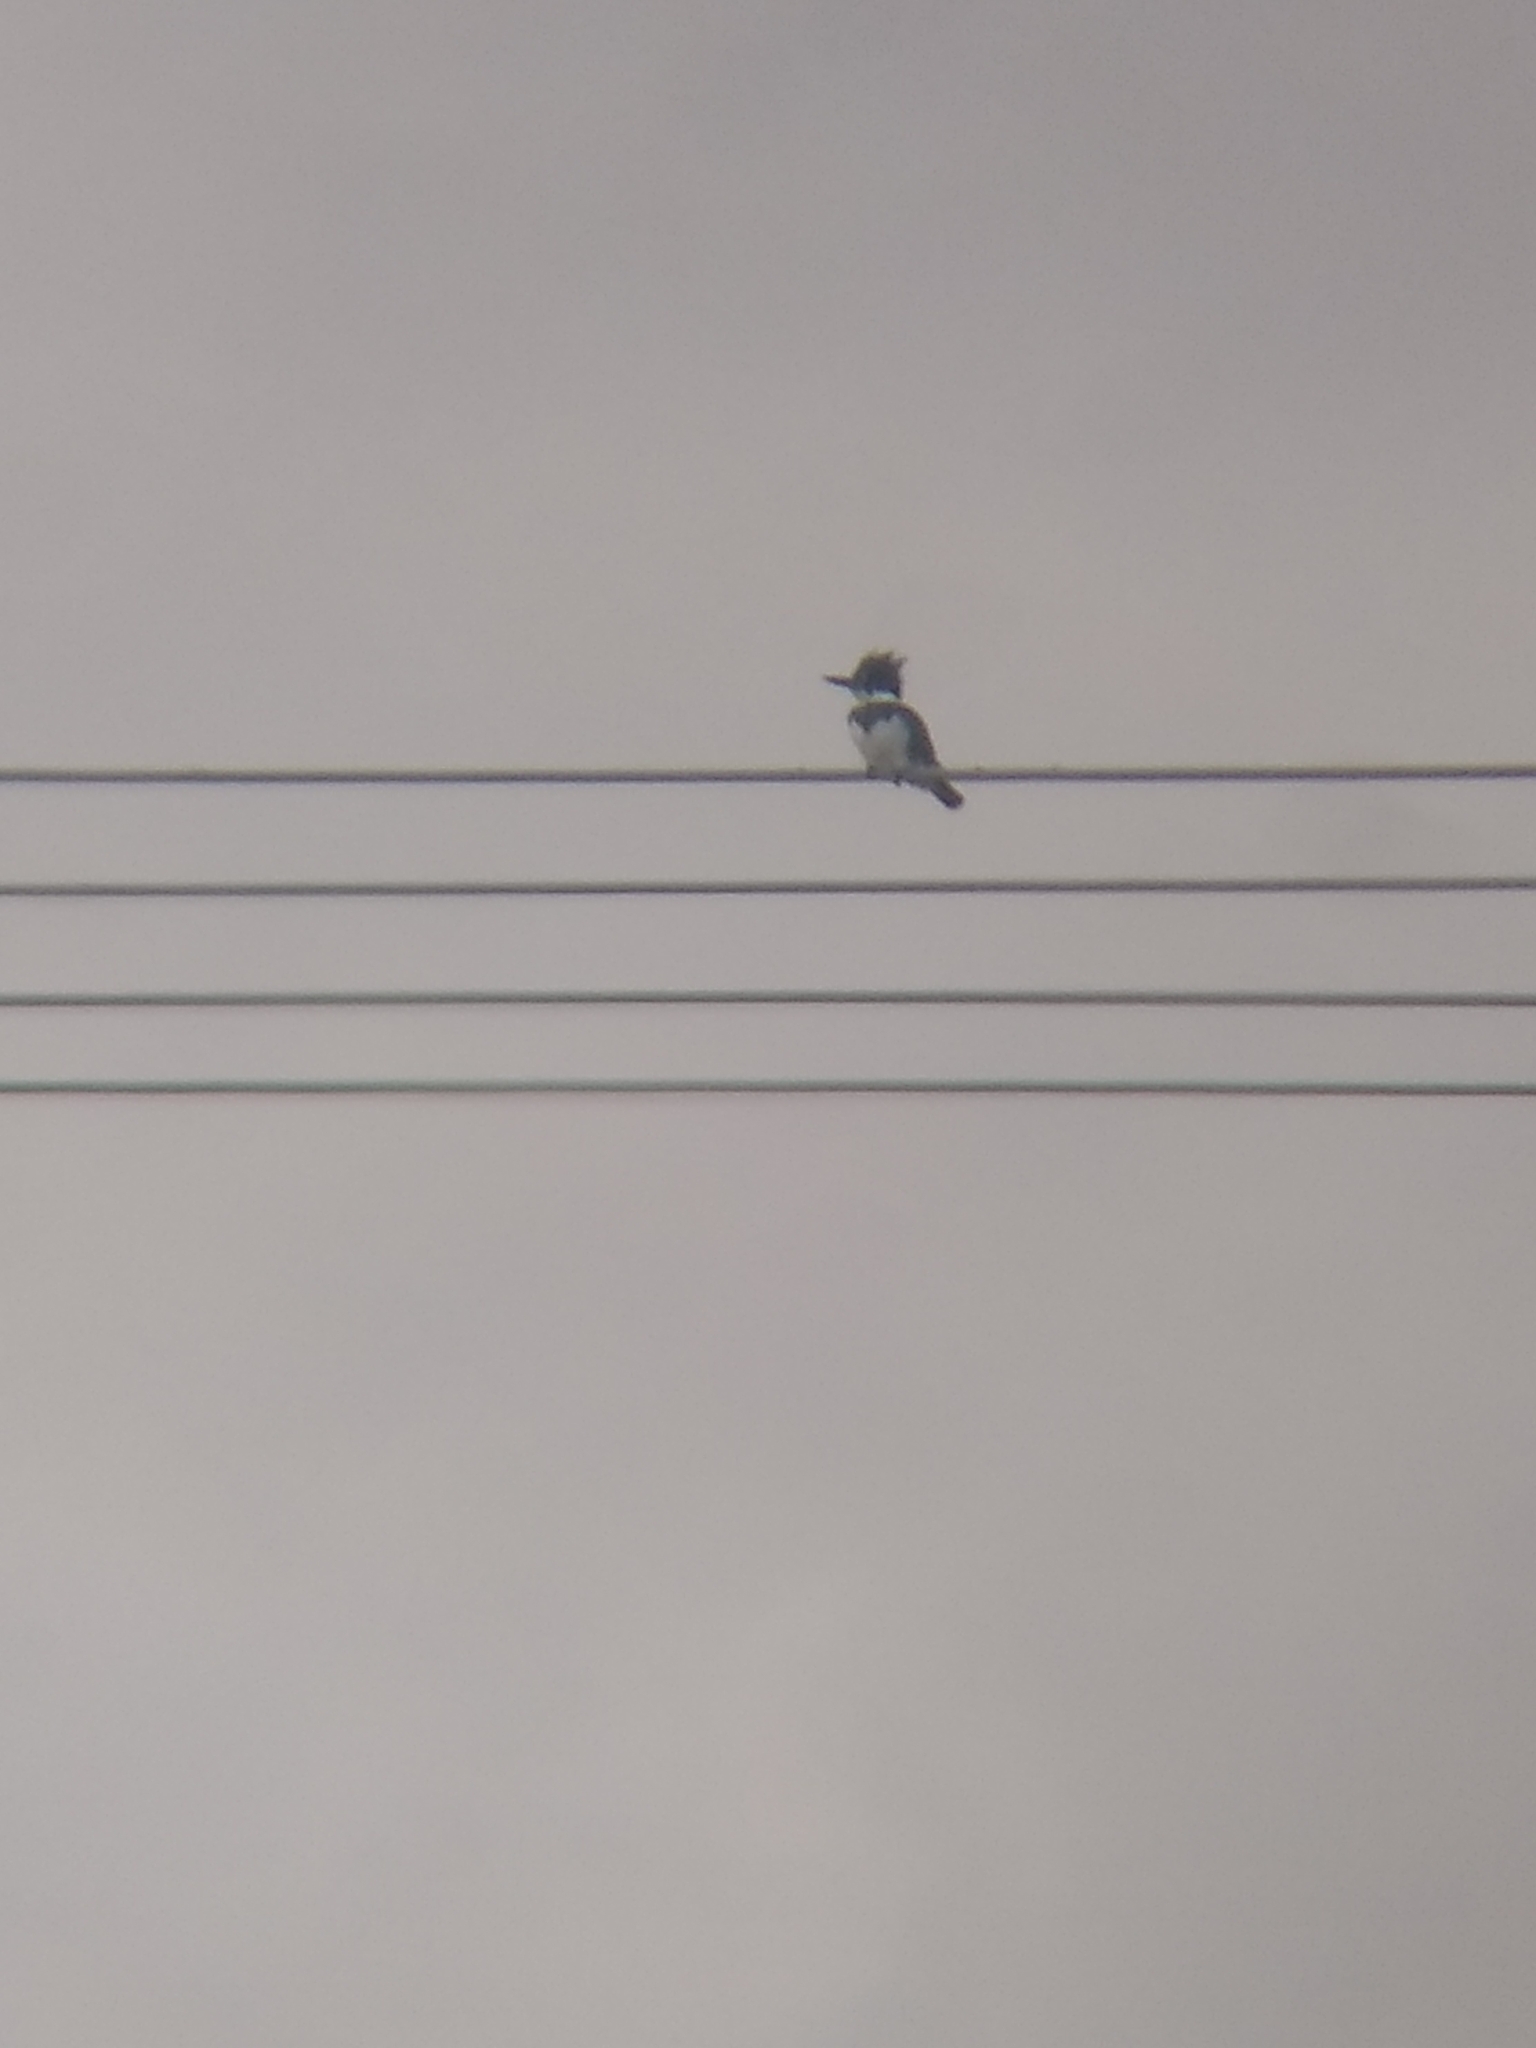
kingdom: Animalia
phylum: Chordata
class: Aves
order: Coraciiformes
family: Alcedinidae
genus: Megaceryle
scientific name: Megaceryle alcyon
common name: Belted kingfisher
